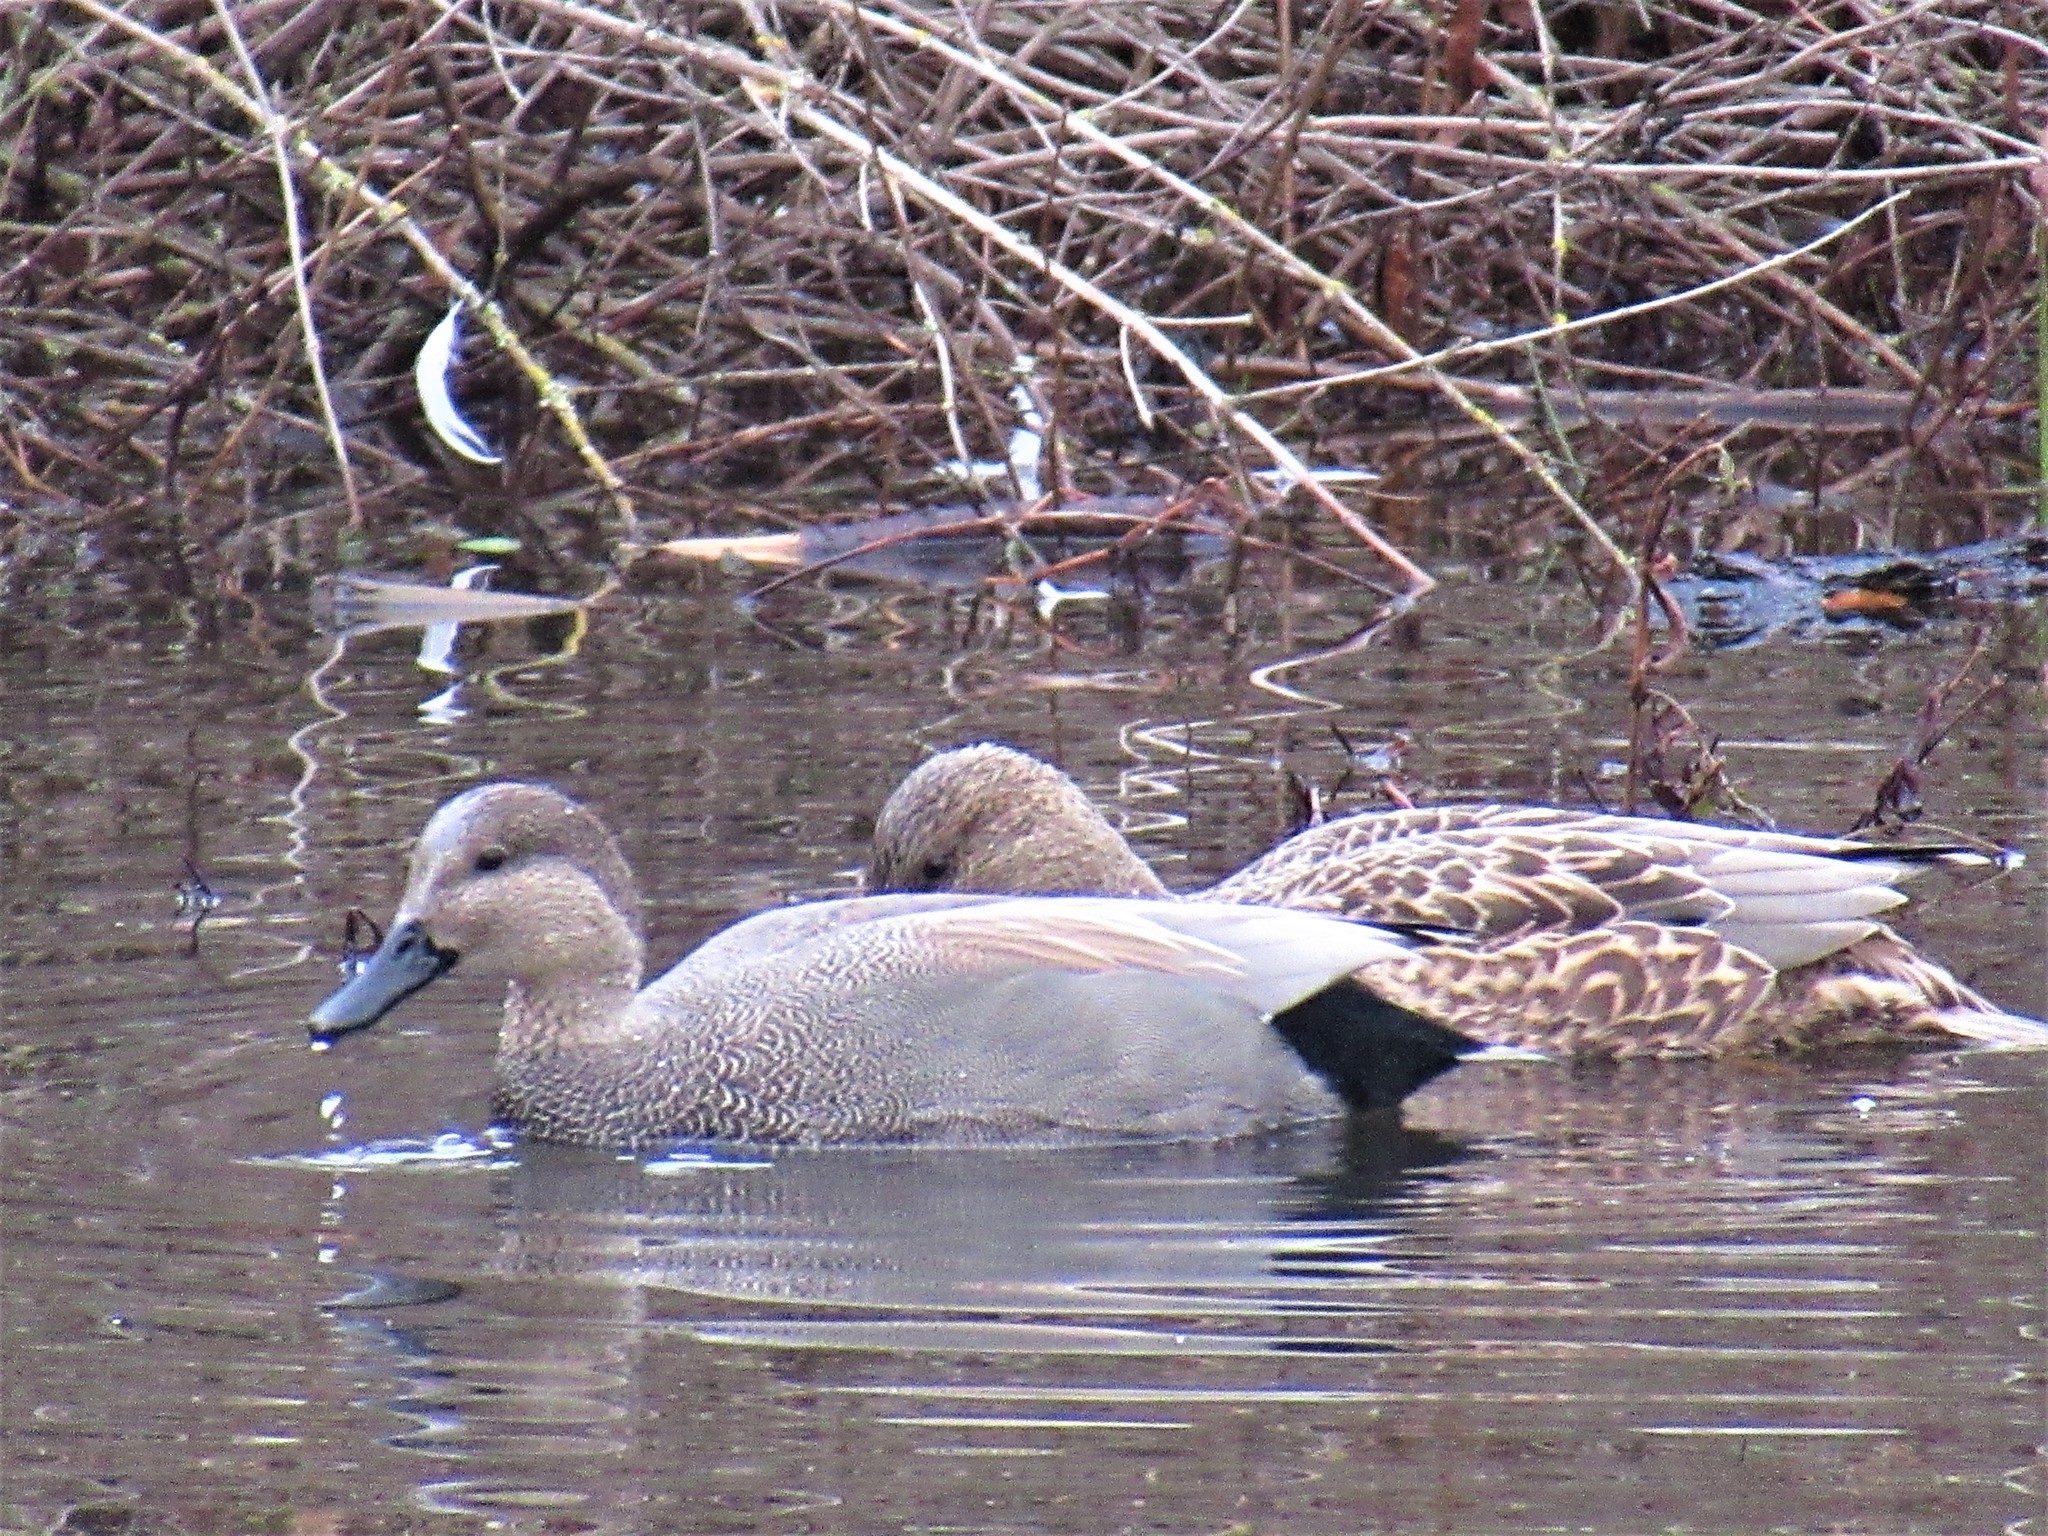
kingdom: Animalia
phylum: Chordata
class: Aves
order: Anseriformes
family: Anatidae
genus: Mareca
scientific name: Mareca strepera
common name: Gadwall
